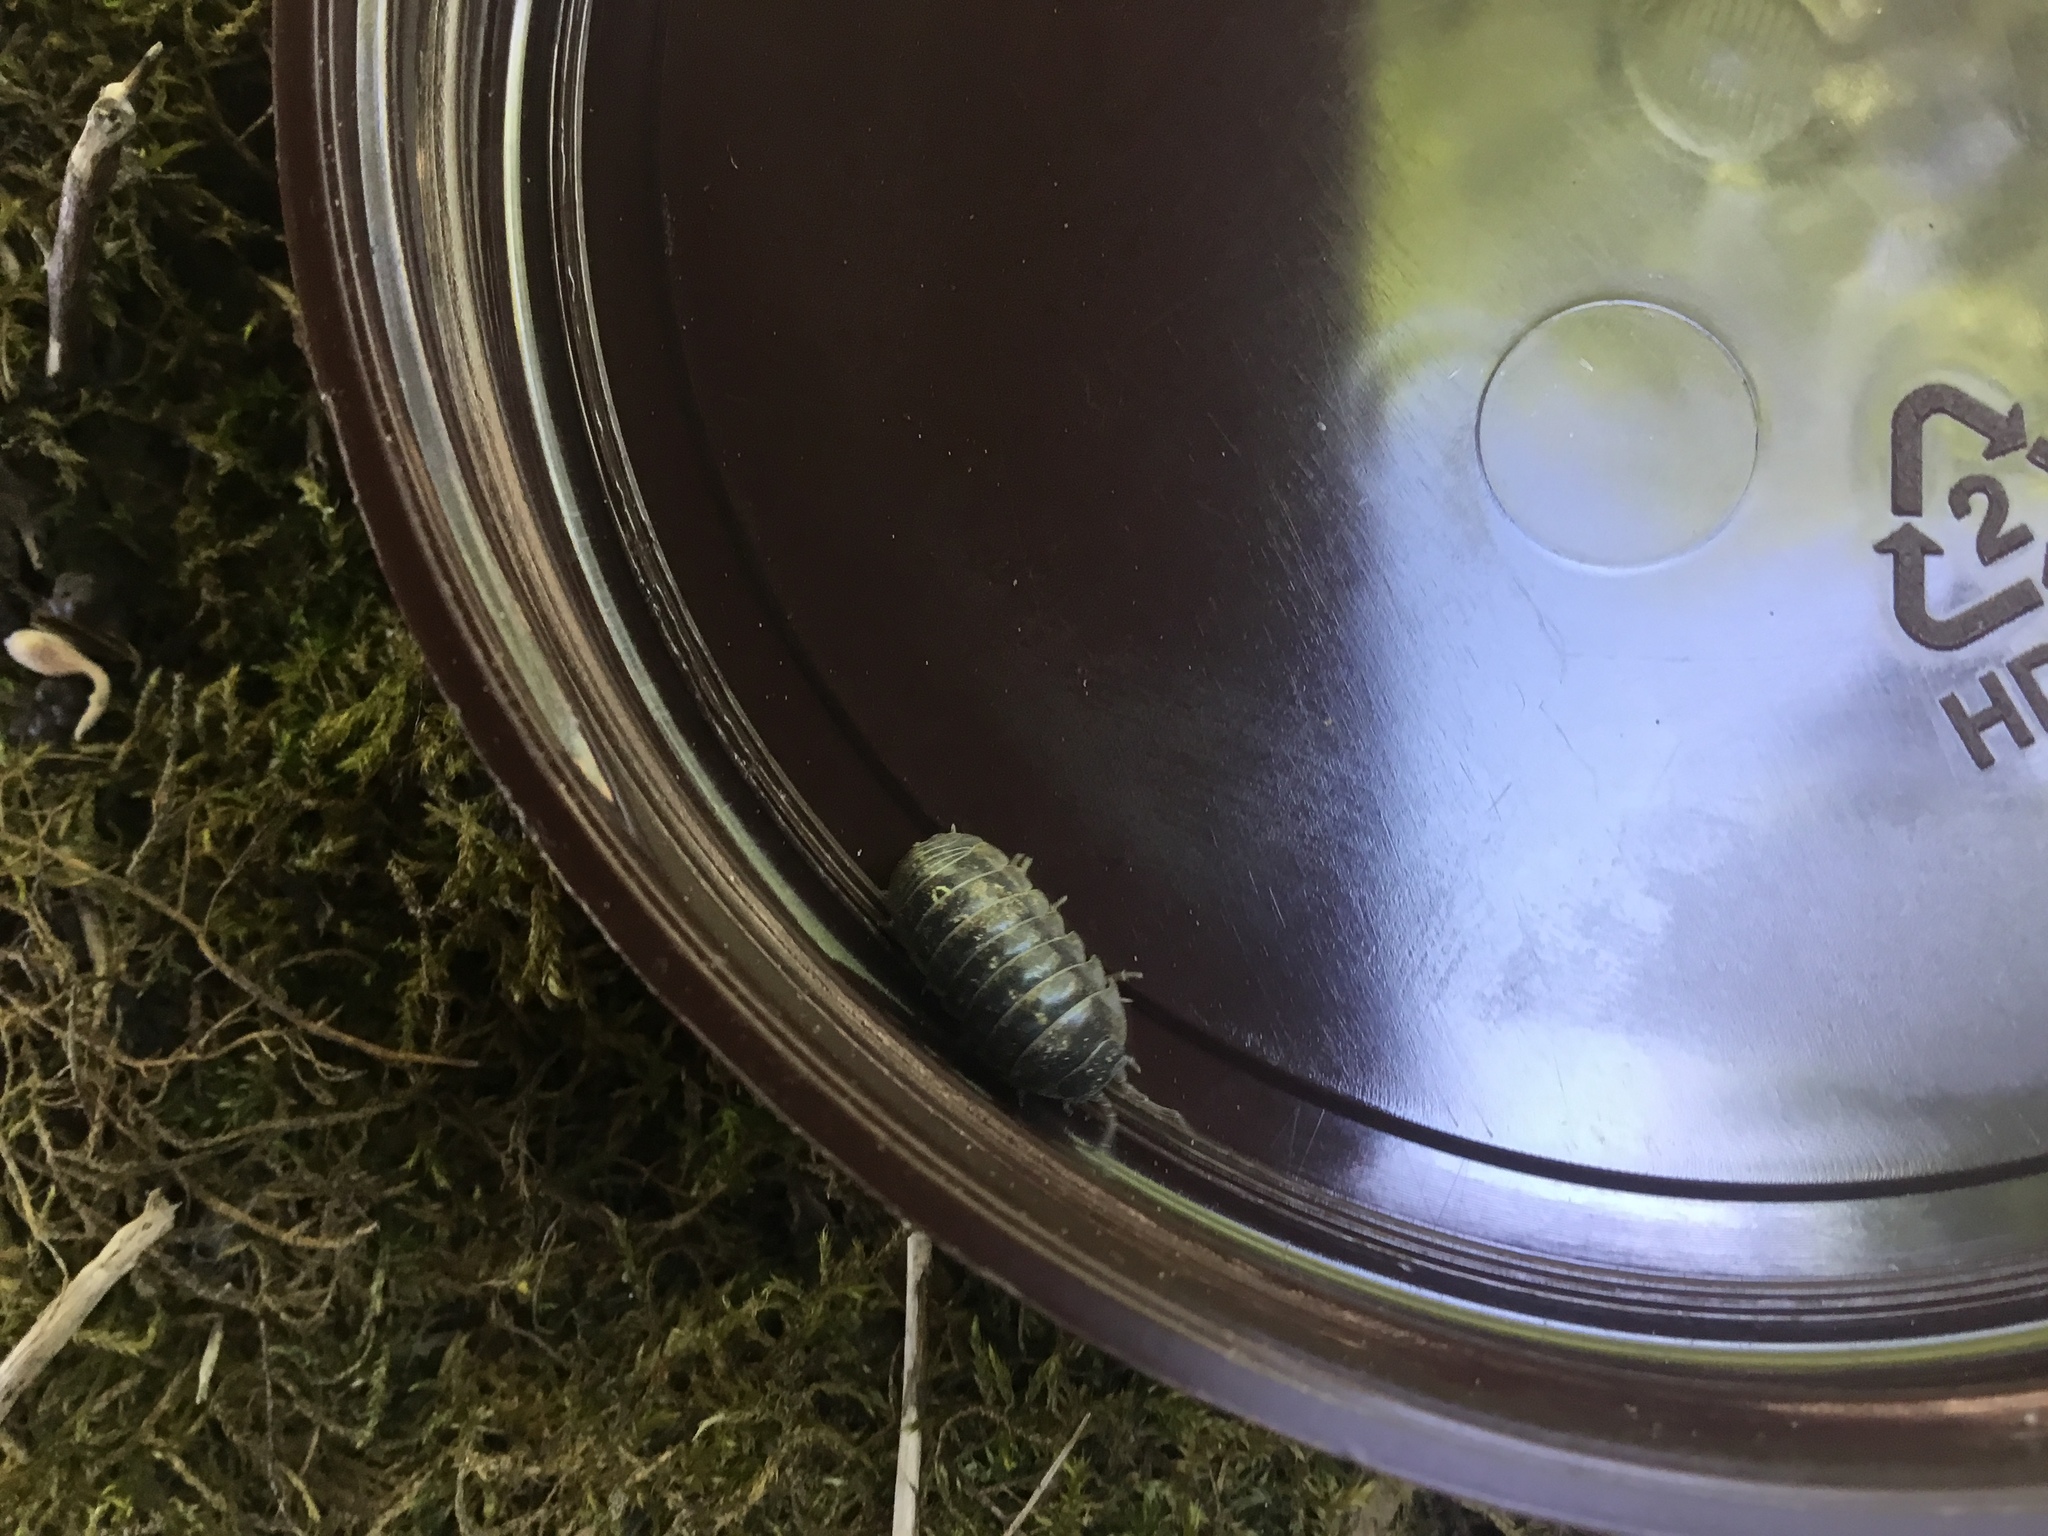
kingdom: Animalia
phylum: Arthropoda
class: Malacostraca
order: Isopoda
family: Armadillidiidae
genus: Armadillidium
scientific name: Armadillidium vulgare
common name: Common pill woodlouse
